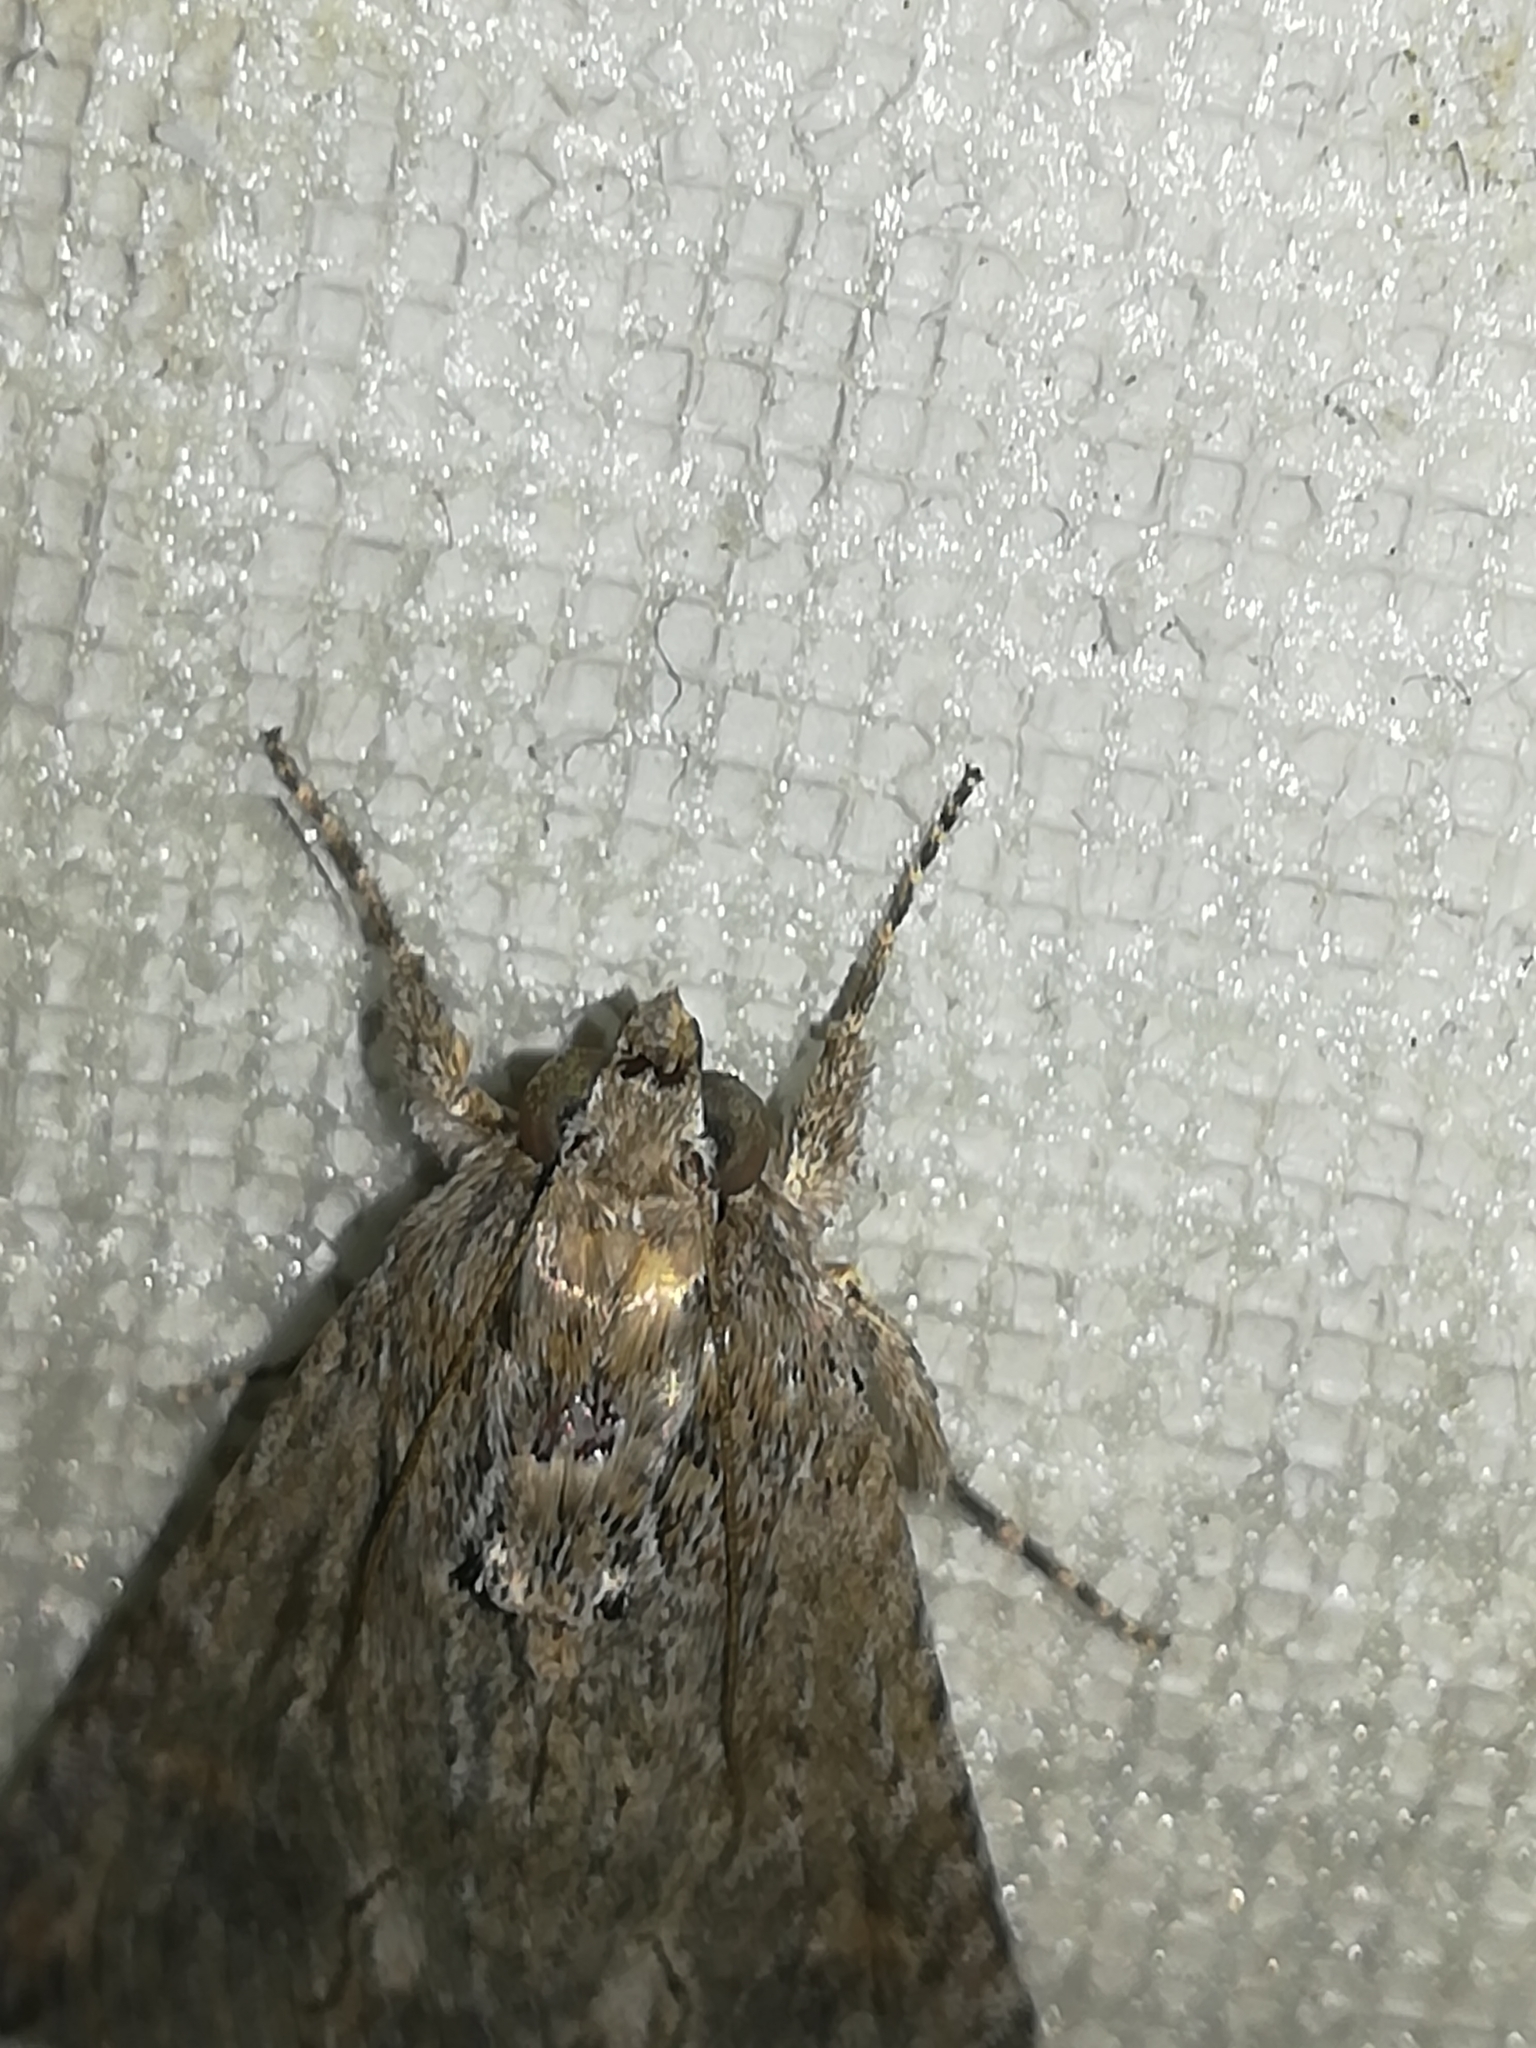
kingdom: Animalia
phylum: Arthropoda
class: Insecta
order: Lepidoptera
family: Erebidae
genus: Melipotis
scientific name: Melipotis acontioides
